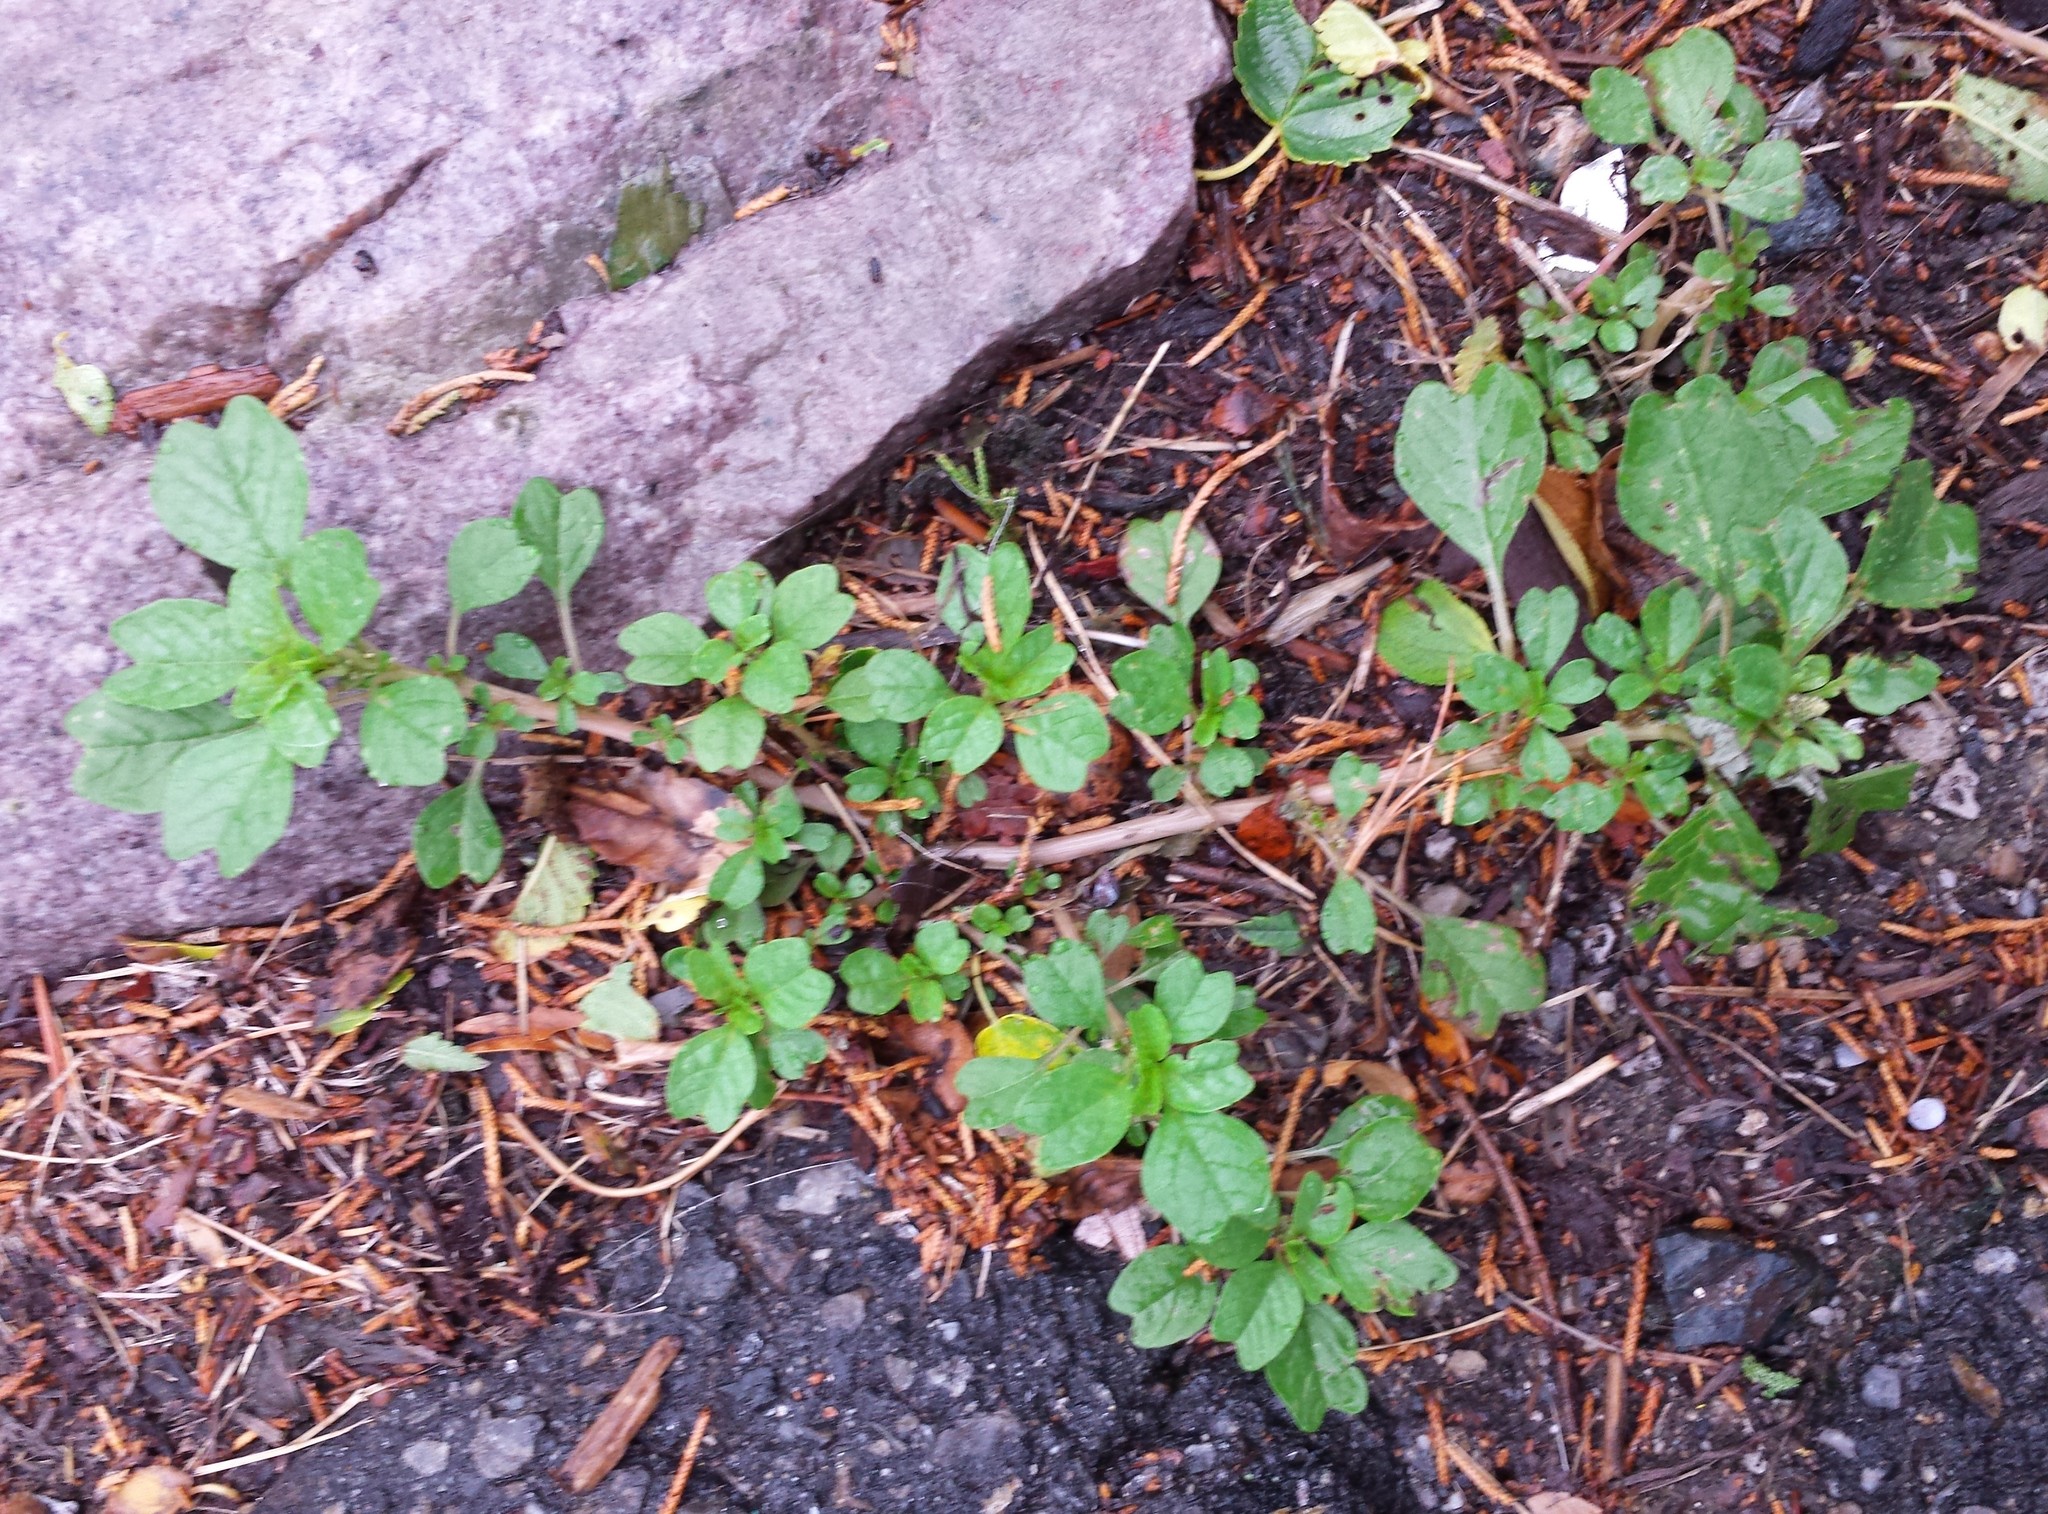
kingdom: Plantae
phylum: Tracheophyta
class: Magnoliopsida
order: Caryophyllales
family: Amaranthaceae
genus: Amaranthus
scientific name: Amaranthus blitum
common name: Purple amaranth
